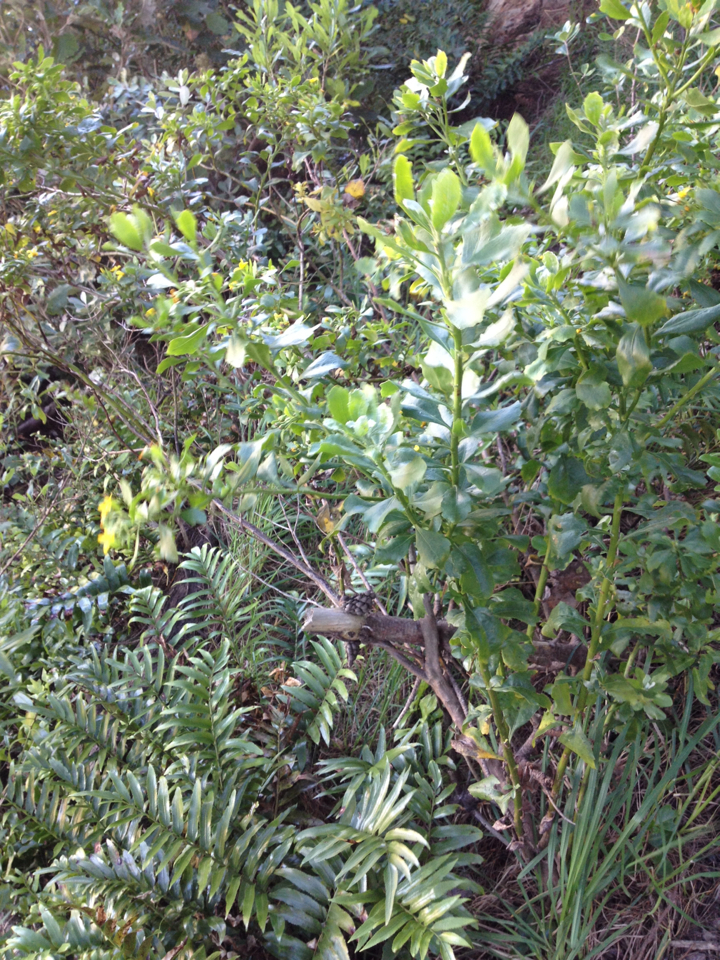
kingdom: Plantae
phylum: Tracheophyta
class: Magnoliopsida
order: Asterales
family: Asteraceae
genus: Osteospermum
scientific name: Osteospermum moniliferum
